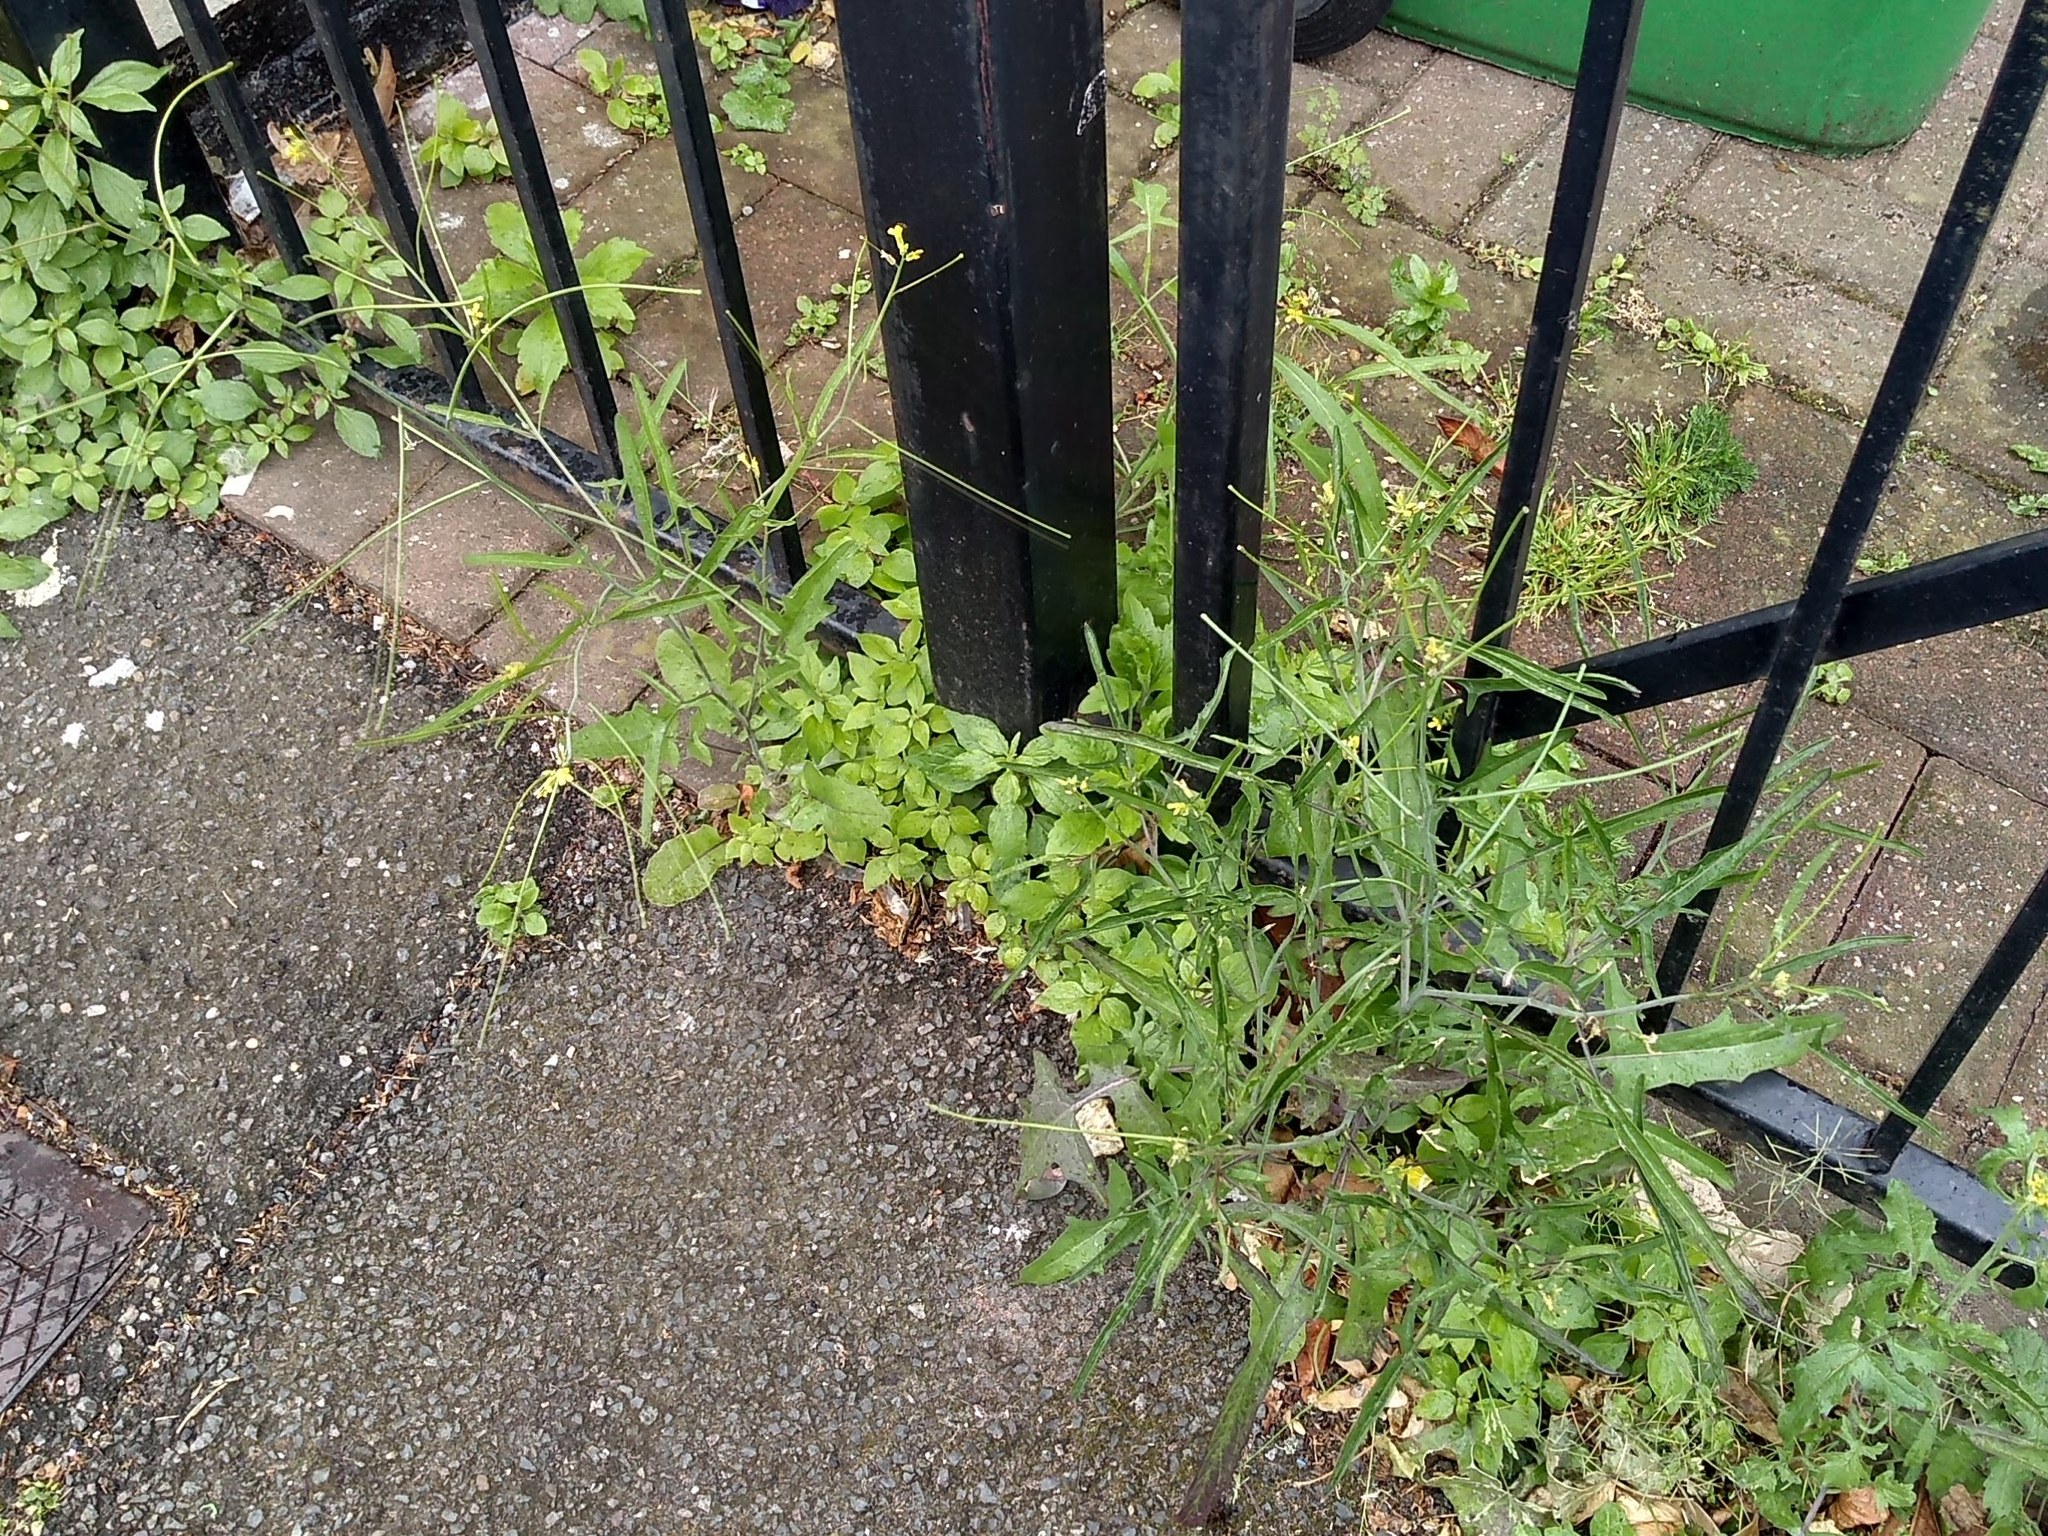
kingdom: Plantae
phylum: Tracheophyta
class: Magnoliopsida
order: Brassicales
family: Brassicaceae
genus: Sisymbrium
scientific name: Sisymbrium orientale
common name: Eastern rocket
